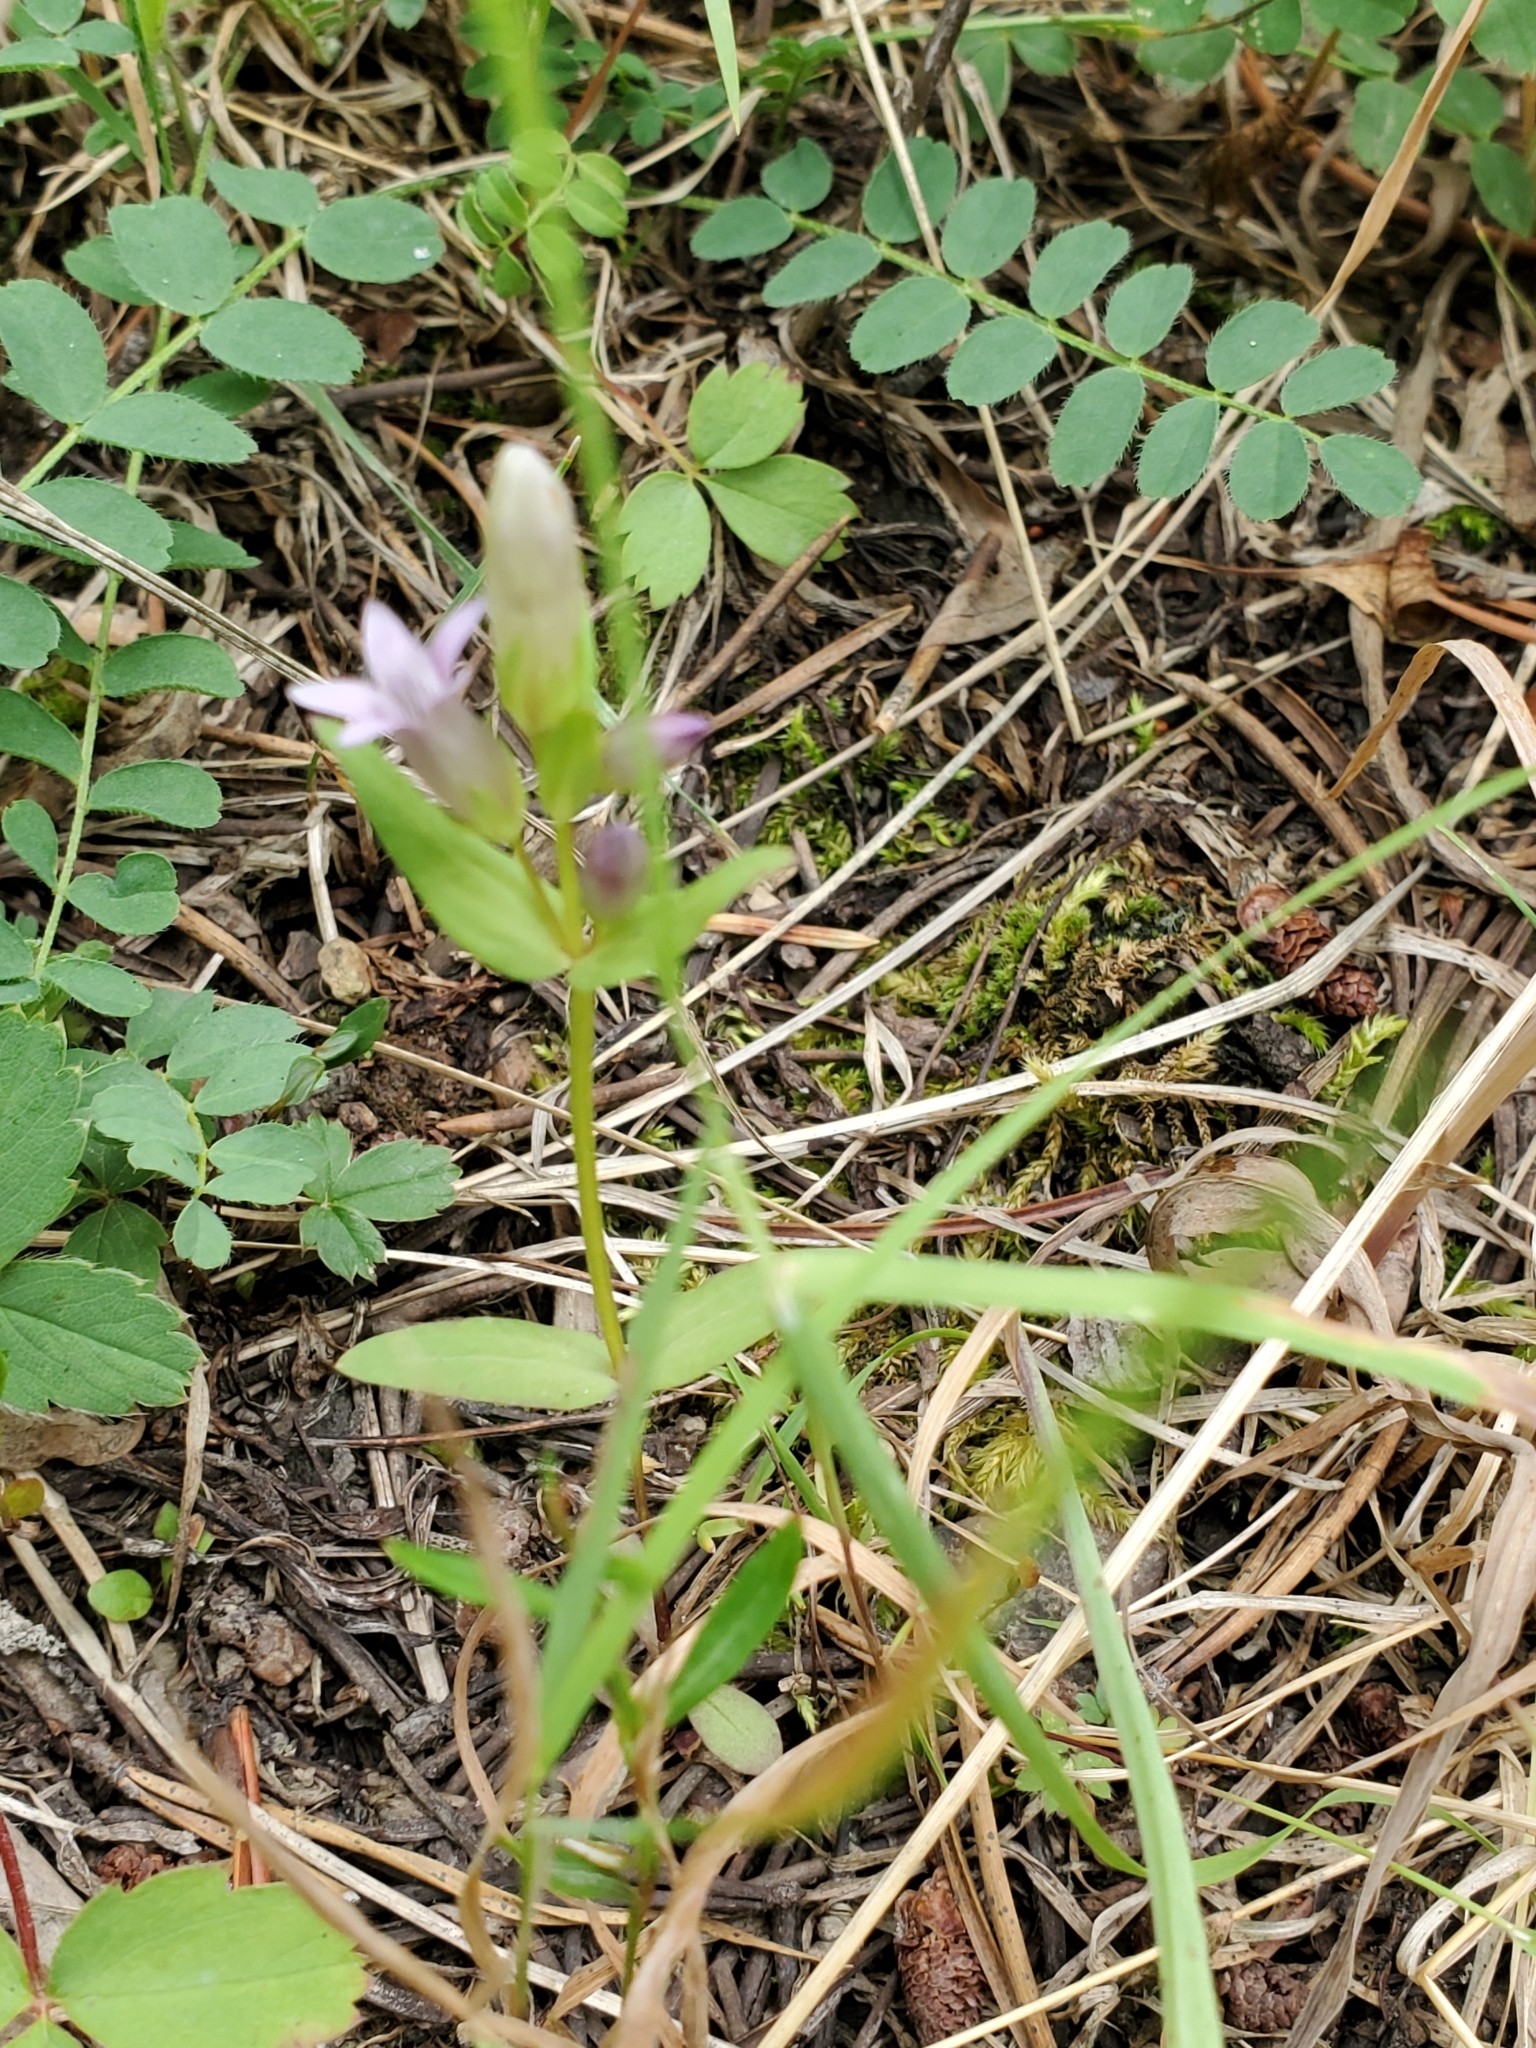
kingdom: Plantae
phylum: Tracheophyta
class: Magnoliopsida
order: Gentianales
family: Gentianaceae
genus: Gentianella
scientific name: Gentianella amarella
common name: Autumn gentian
